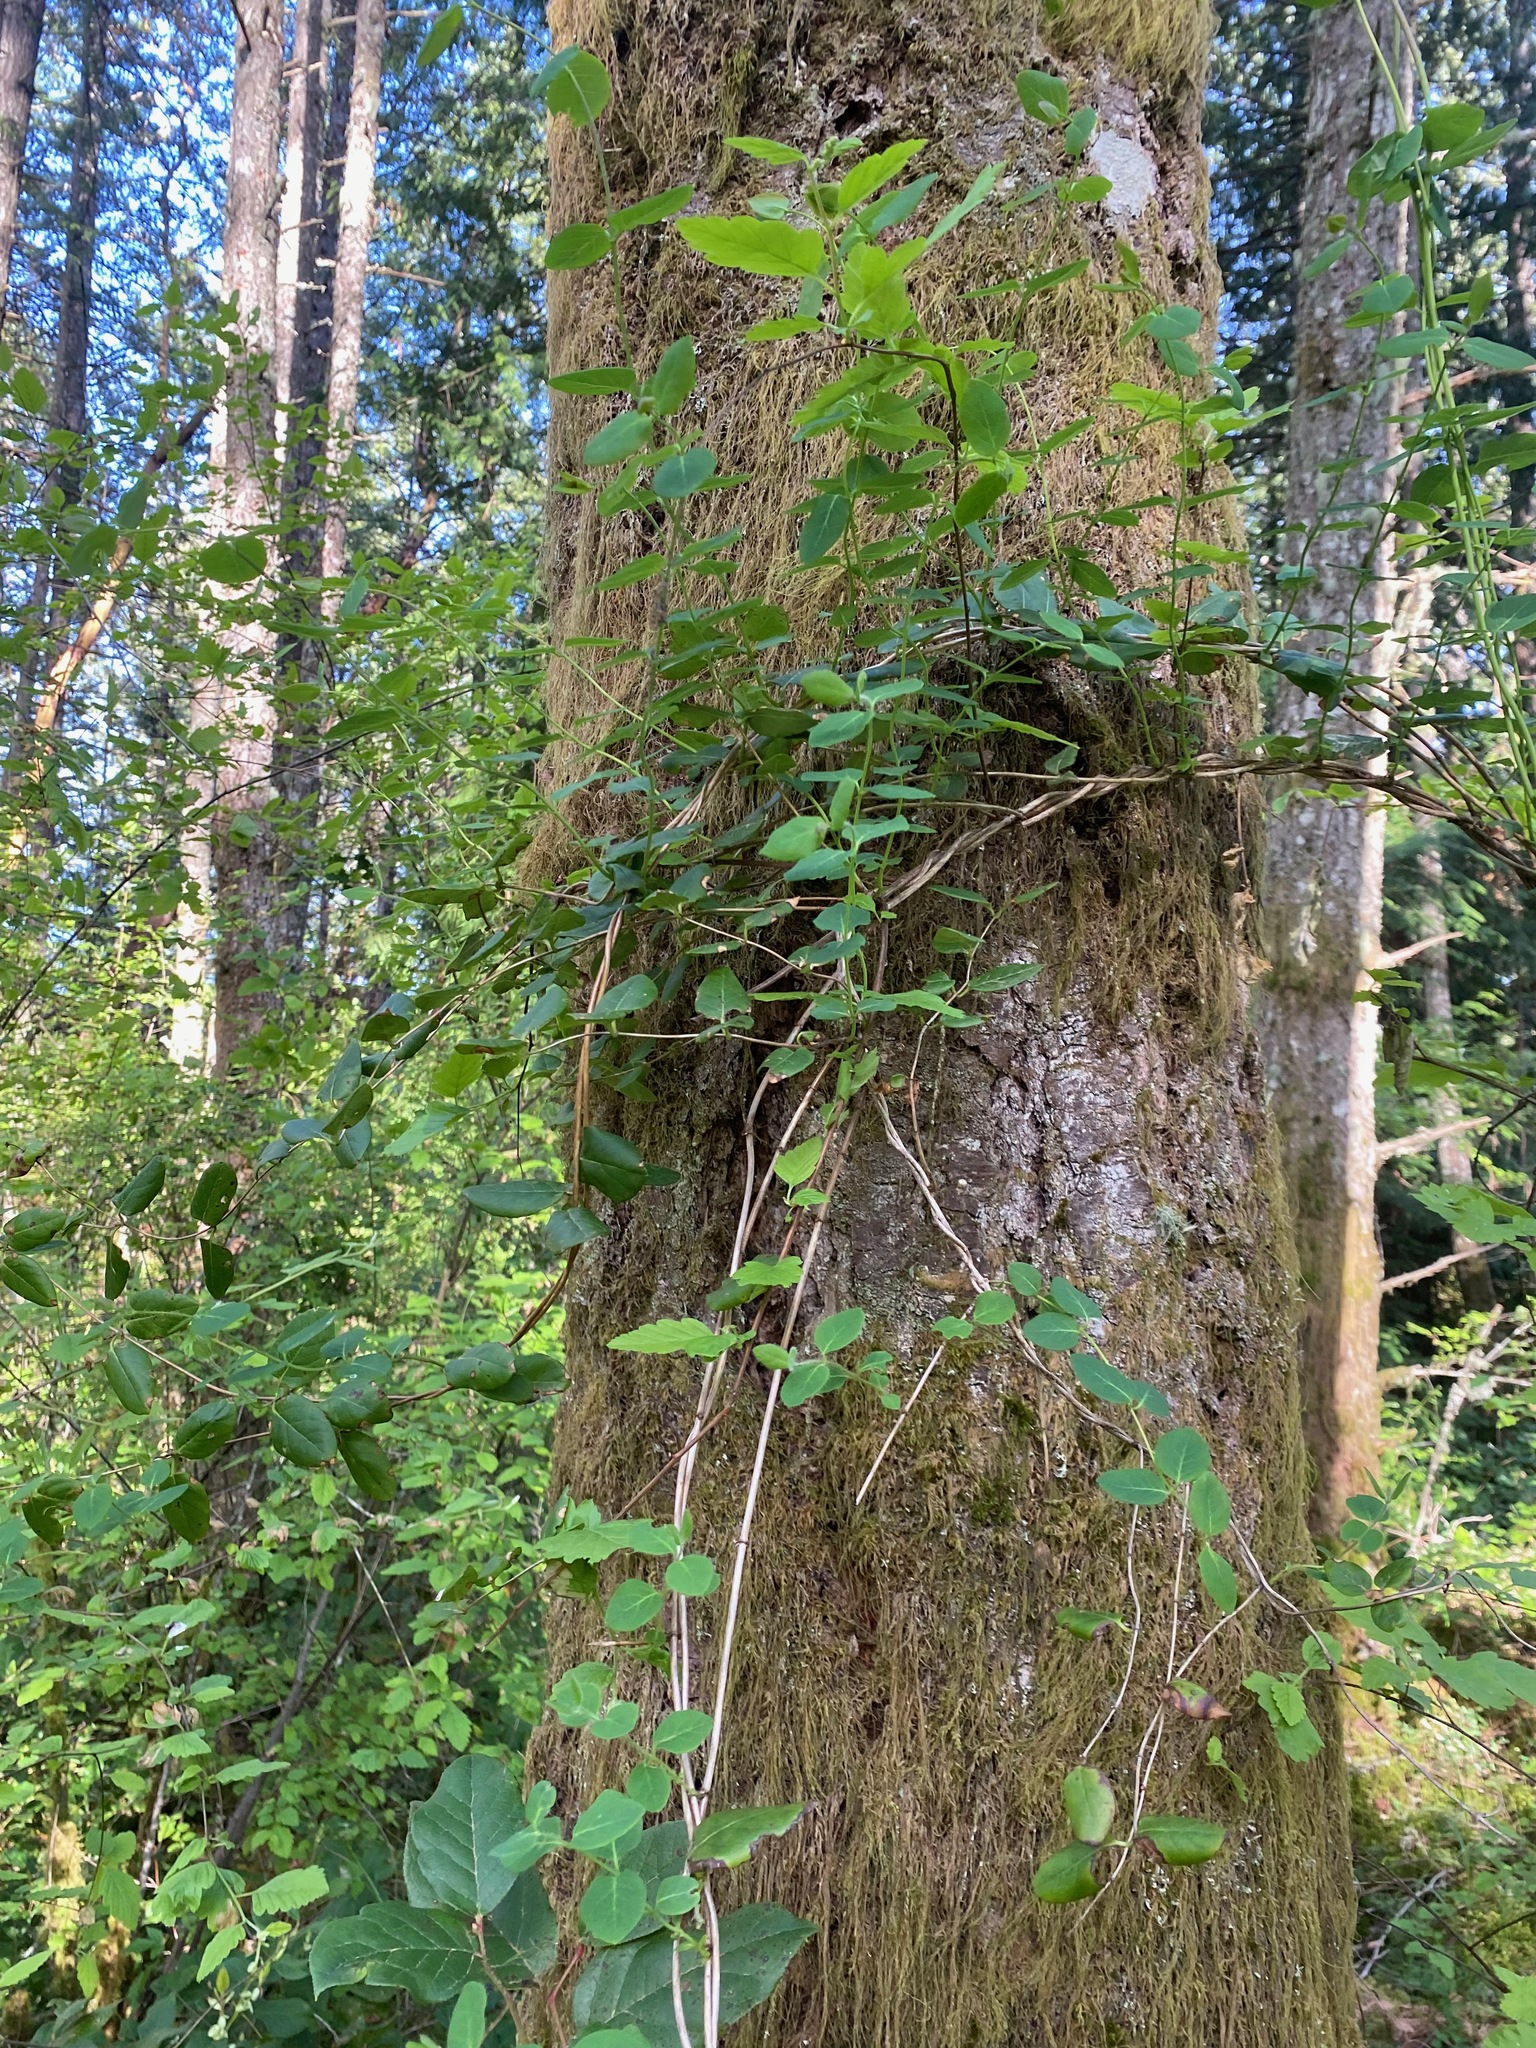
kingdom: Plantae
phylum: Tracheophyta
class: Magnoliopsida
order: Dipsacales
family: Caprifoliaceae
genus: Lonicera
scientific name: Lonicera hispidula
